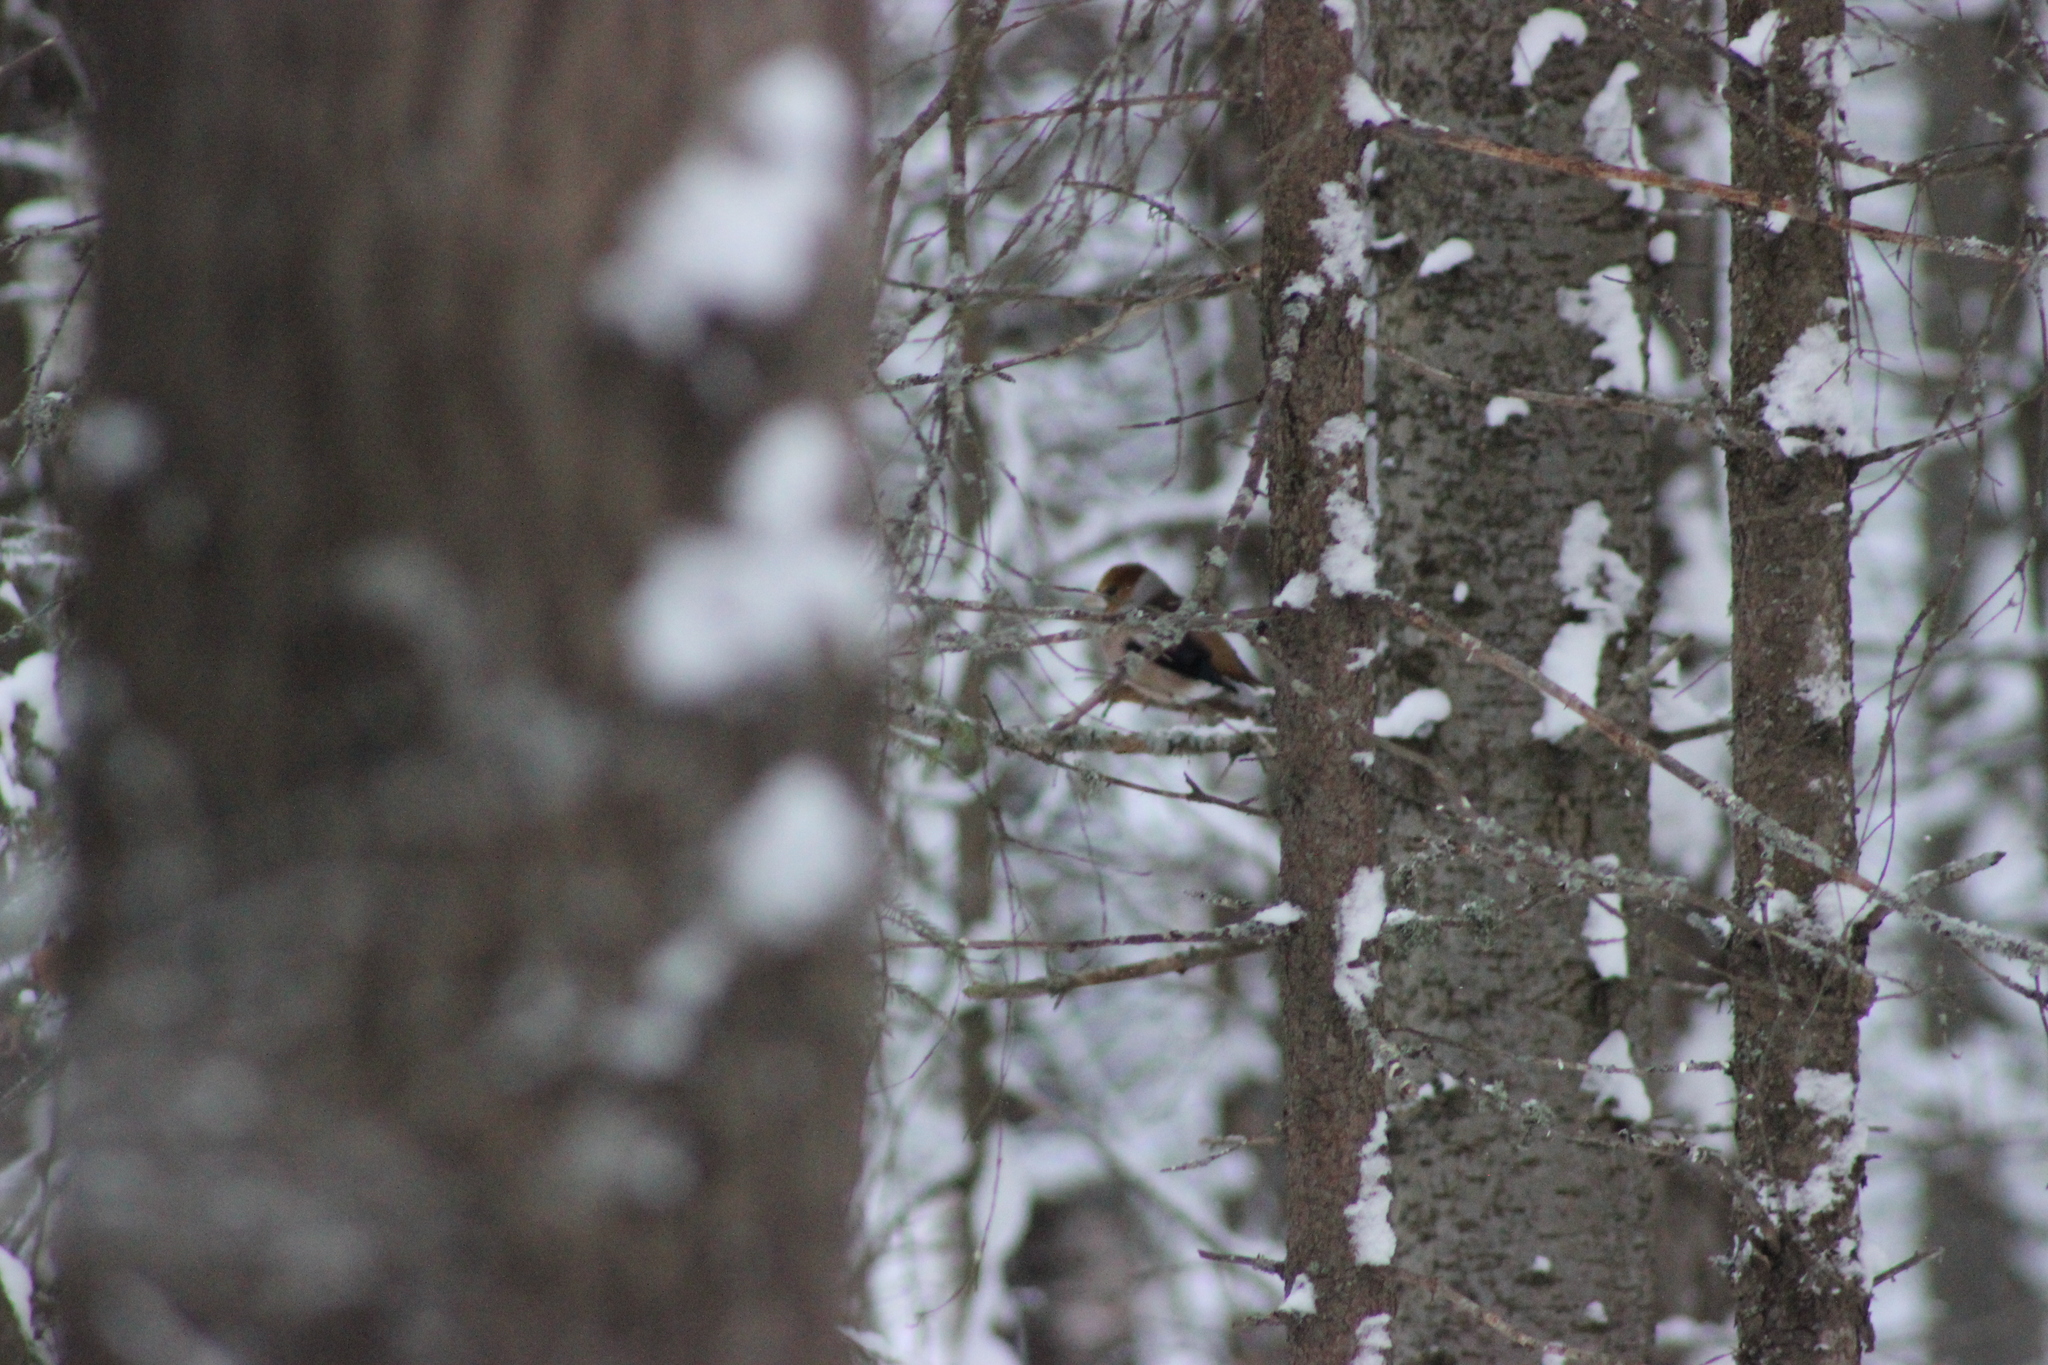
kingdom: Animalia
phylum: Chordata
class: Aves
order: Passeriformes
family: Fringillidae
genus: Coccothraustes
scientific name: Coccothraustes coccothraustes
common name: Hawfinch
